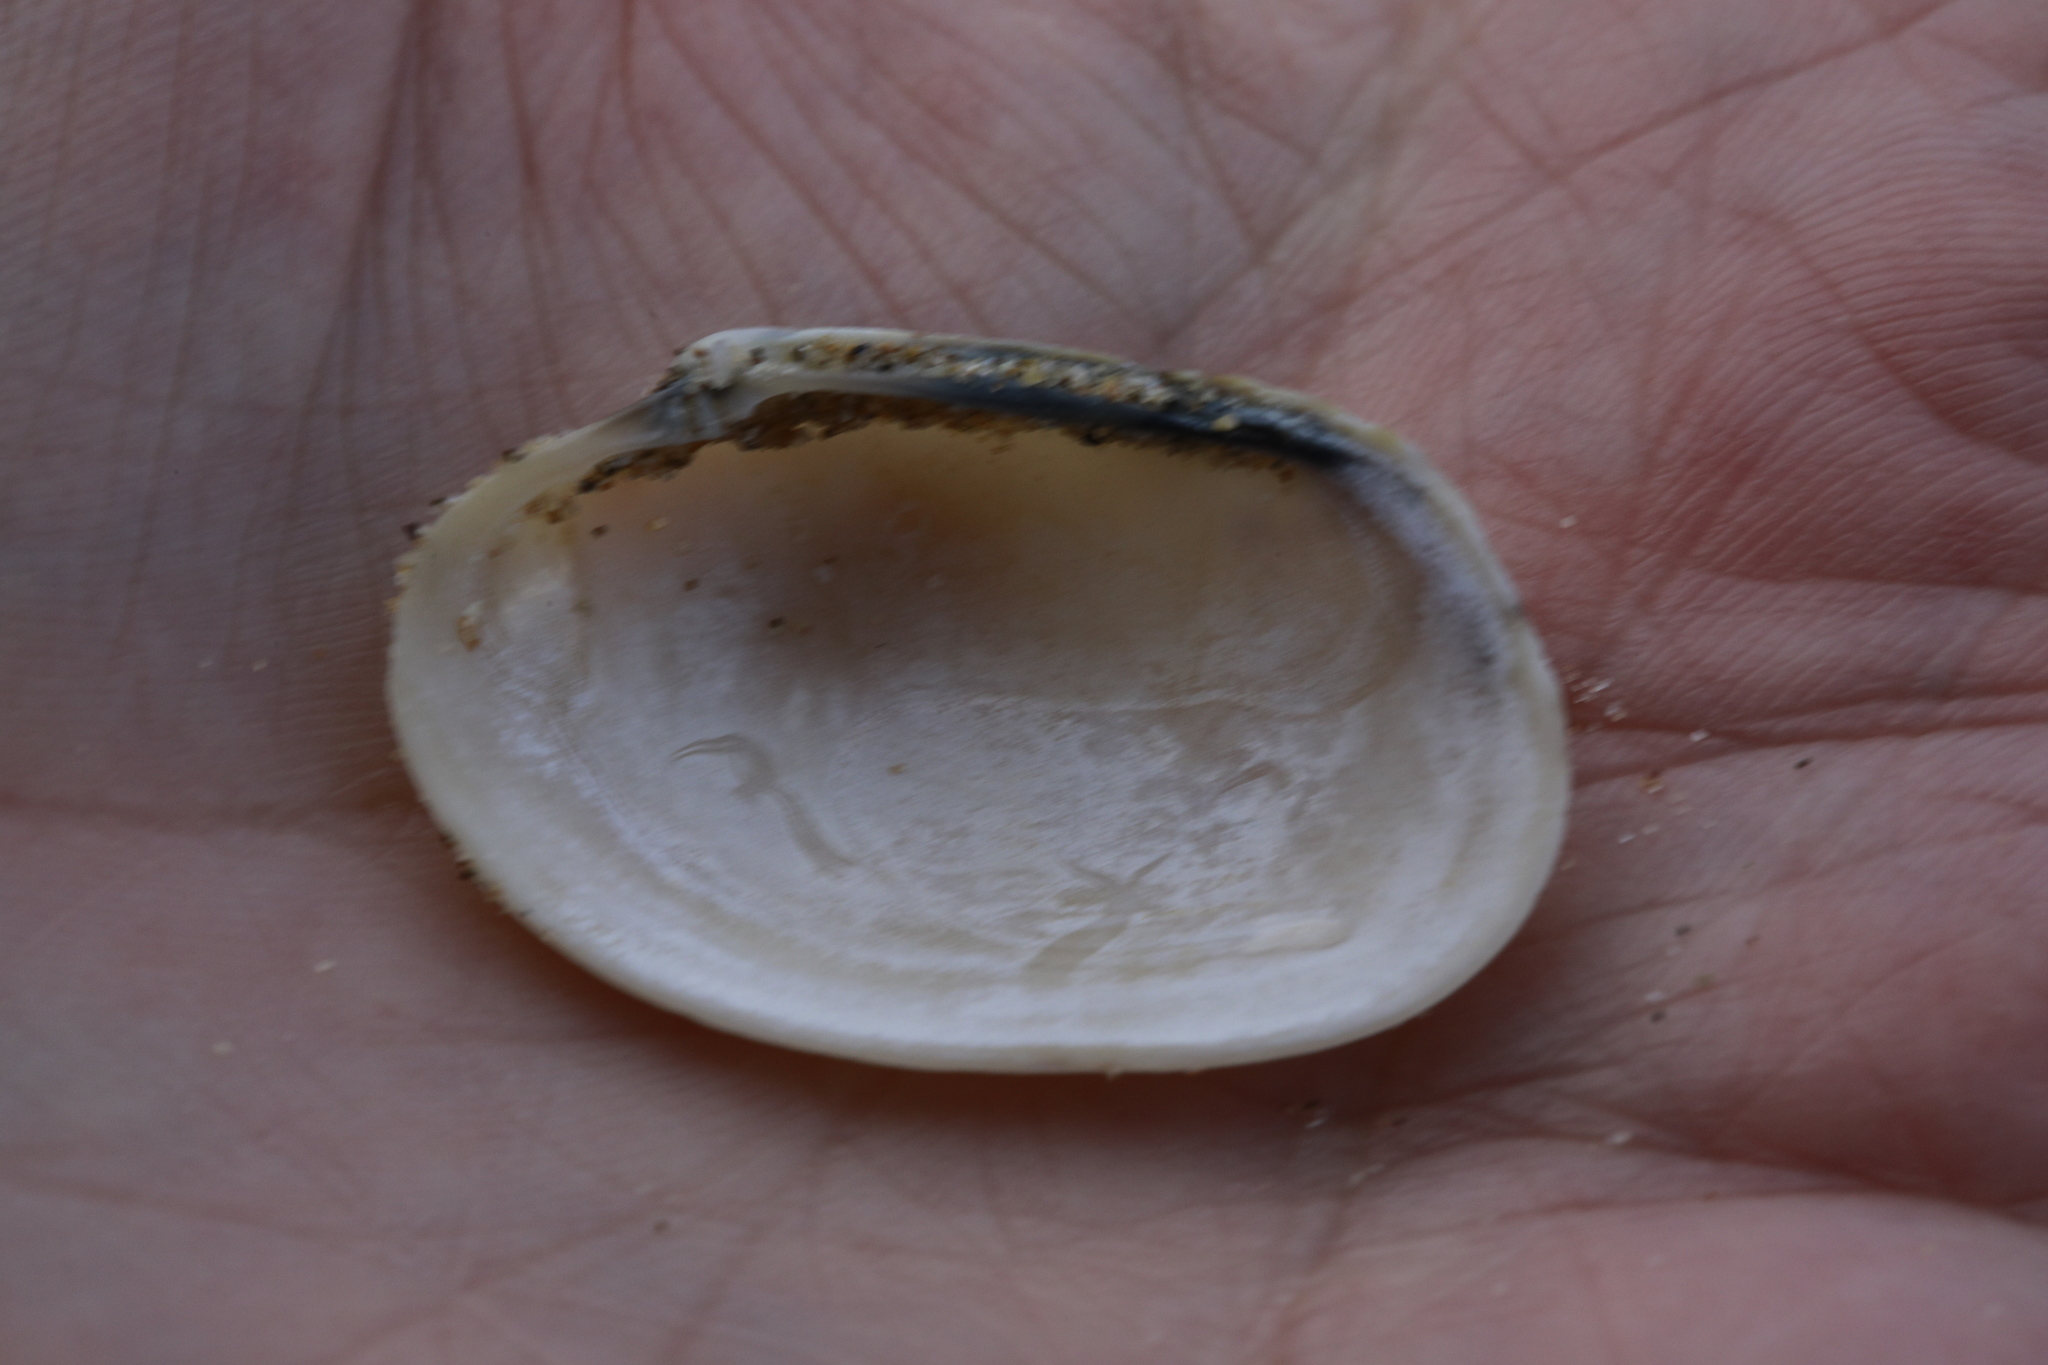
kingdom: Animalia
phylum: Mollusca
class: Bivalvia
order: Venerida
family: Veneridae
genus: Venerupis
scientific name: Venerupis corrugata
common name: Pullet carpet shell
